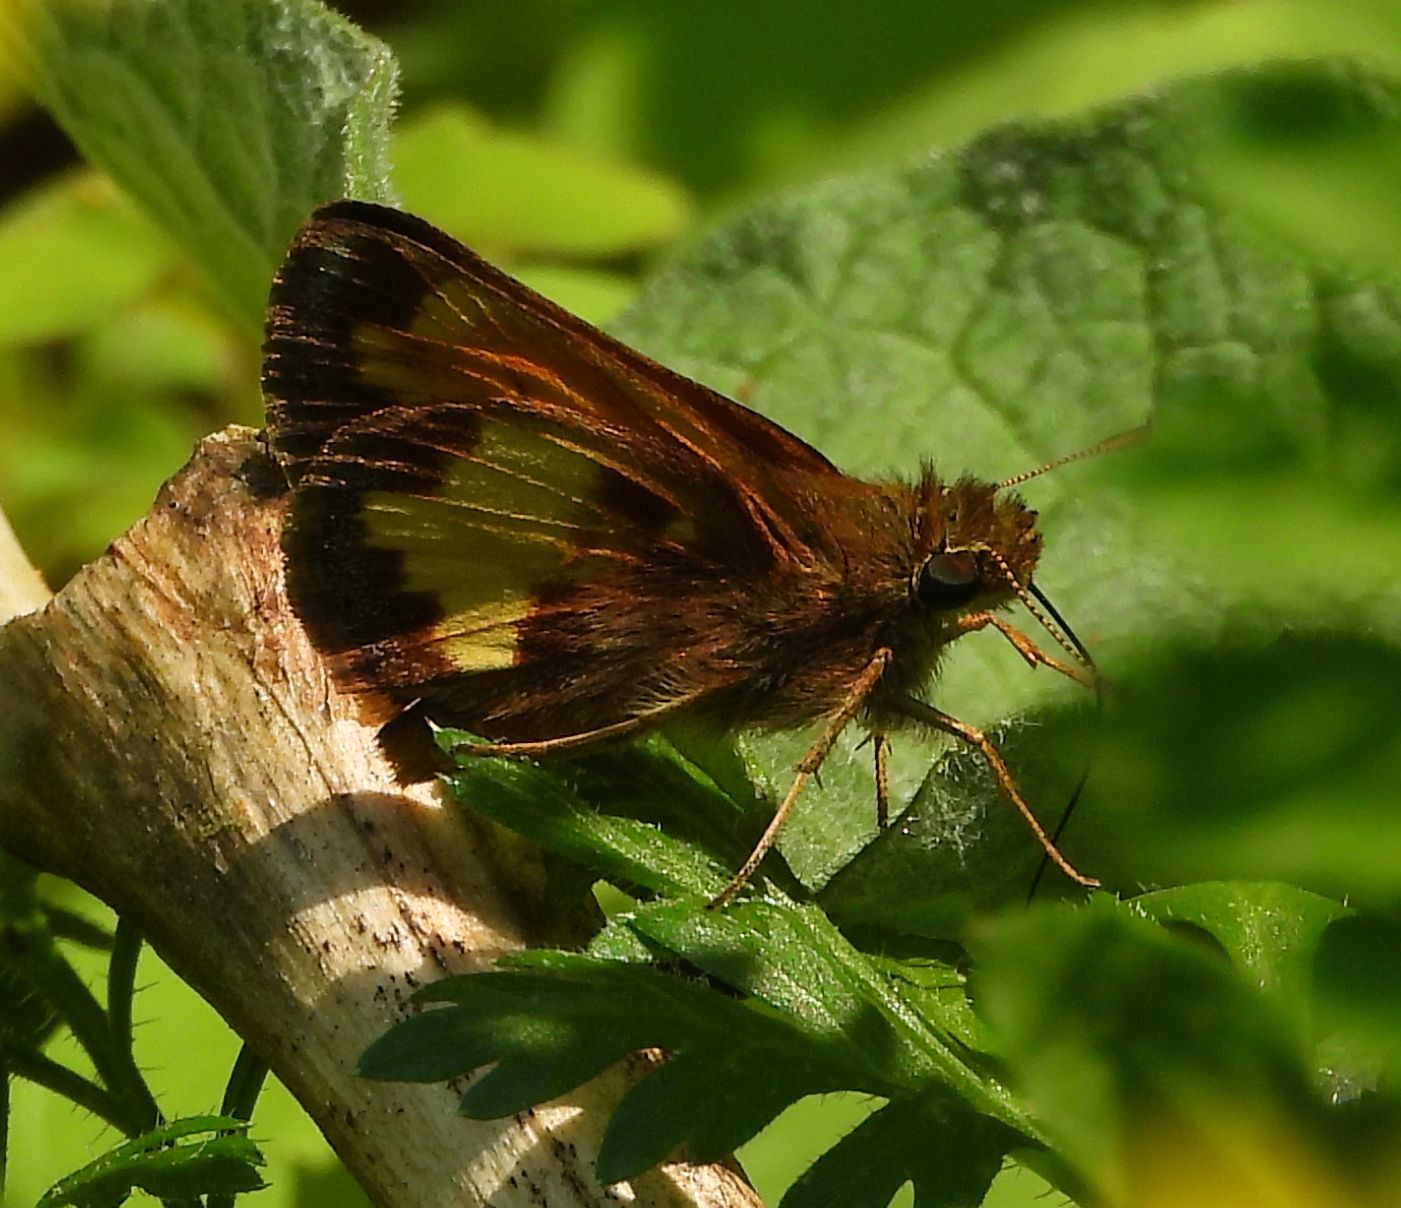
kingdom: Animalia
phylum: Arthropoda
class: Insecta
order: Lepidoptera
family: Hesperiidae
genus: Lon
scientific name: Lon hobomok
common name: Hobomok skipper
